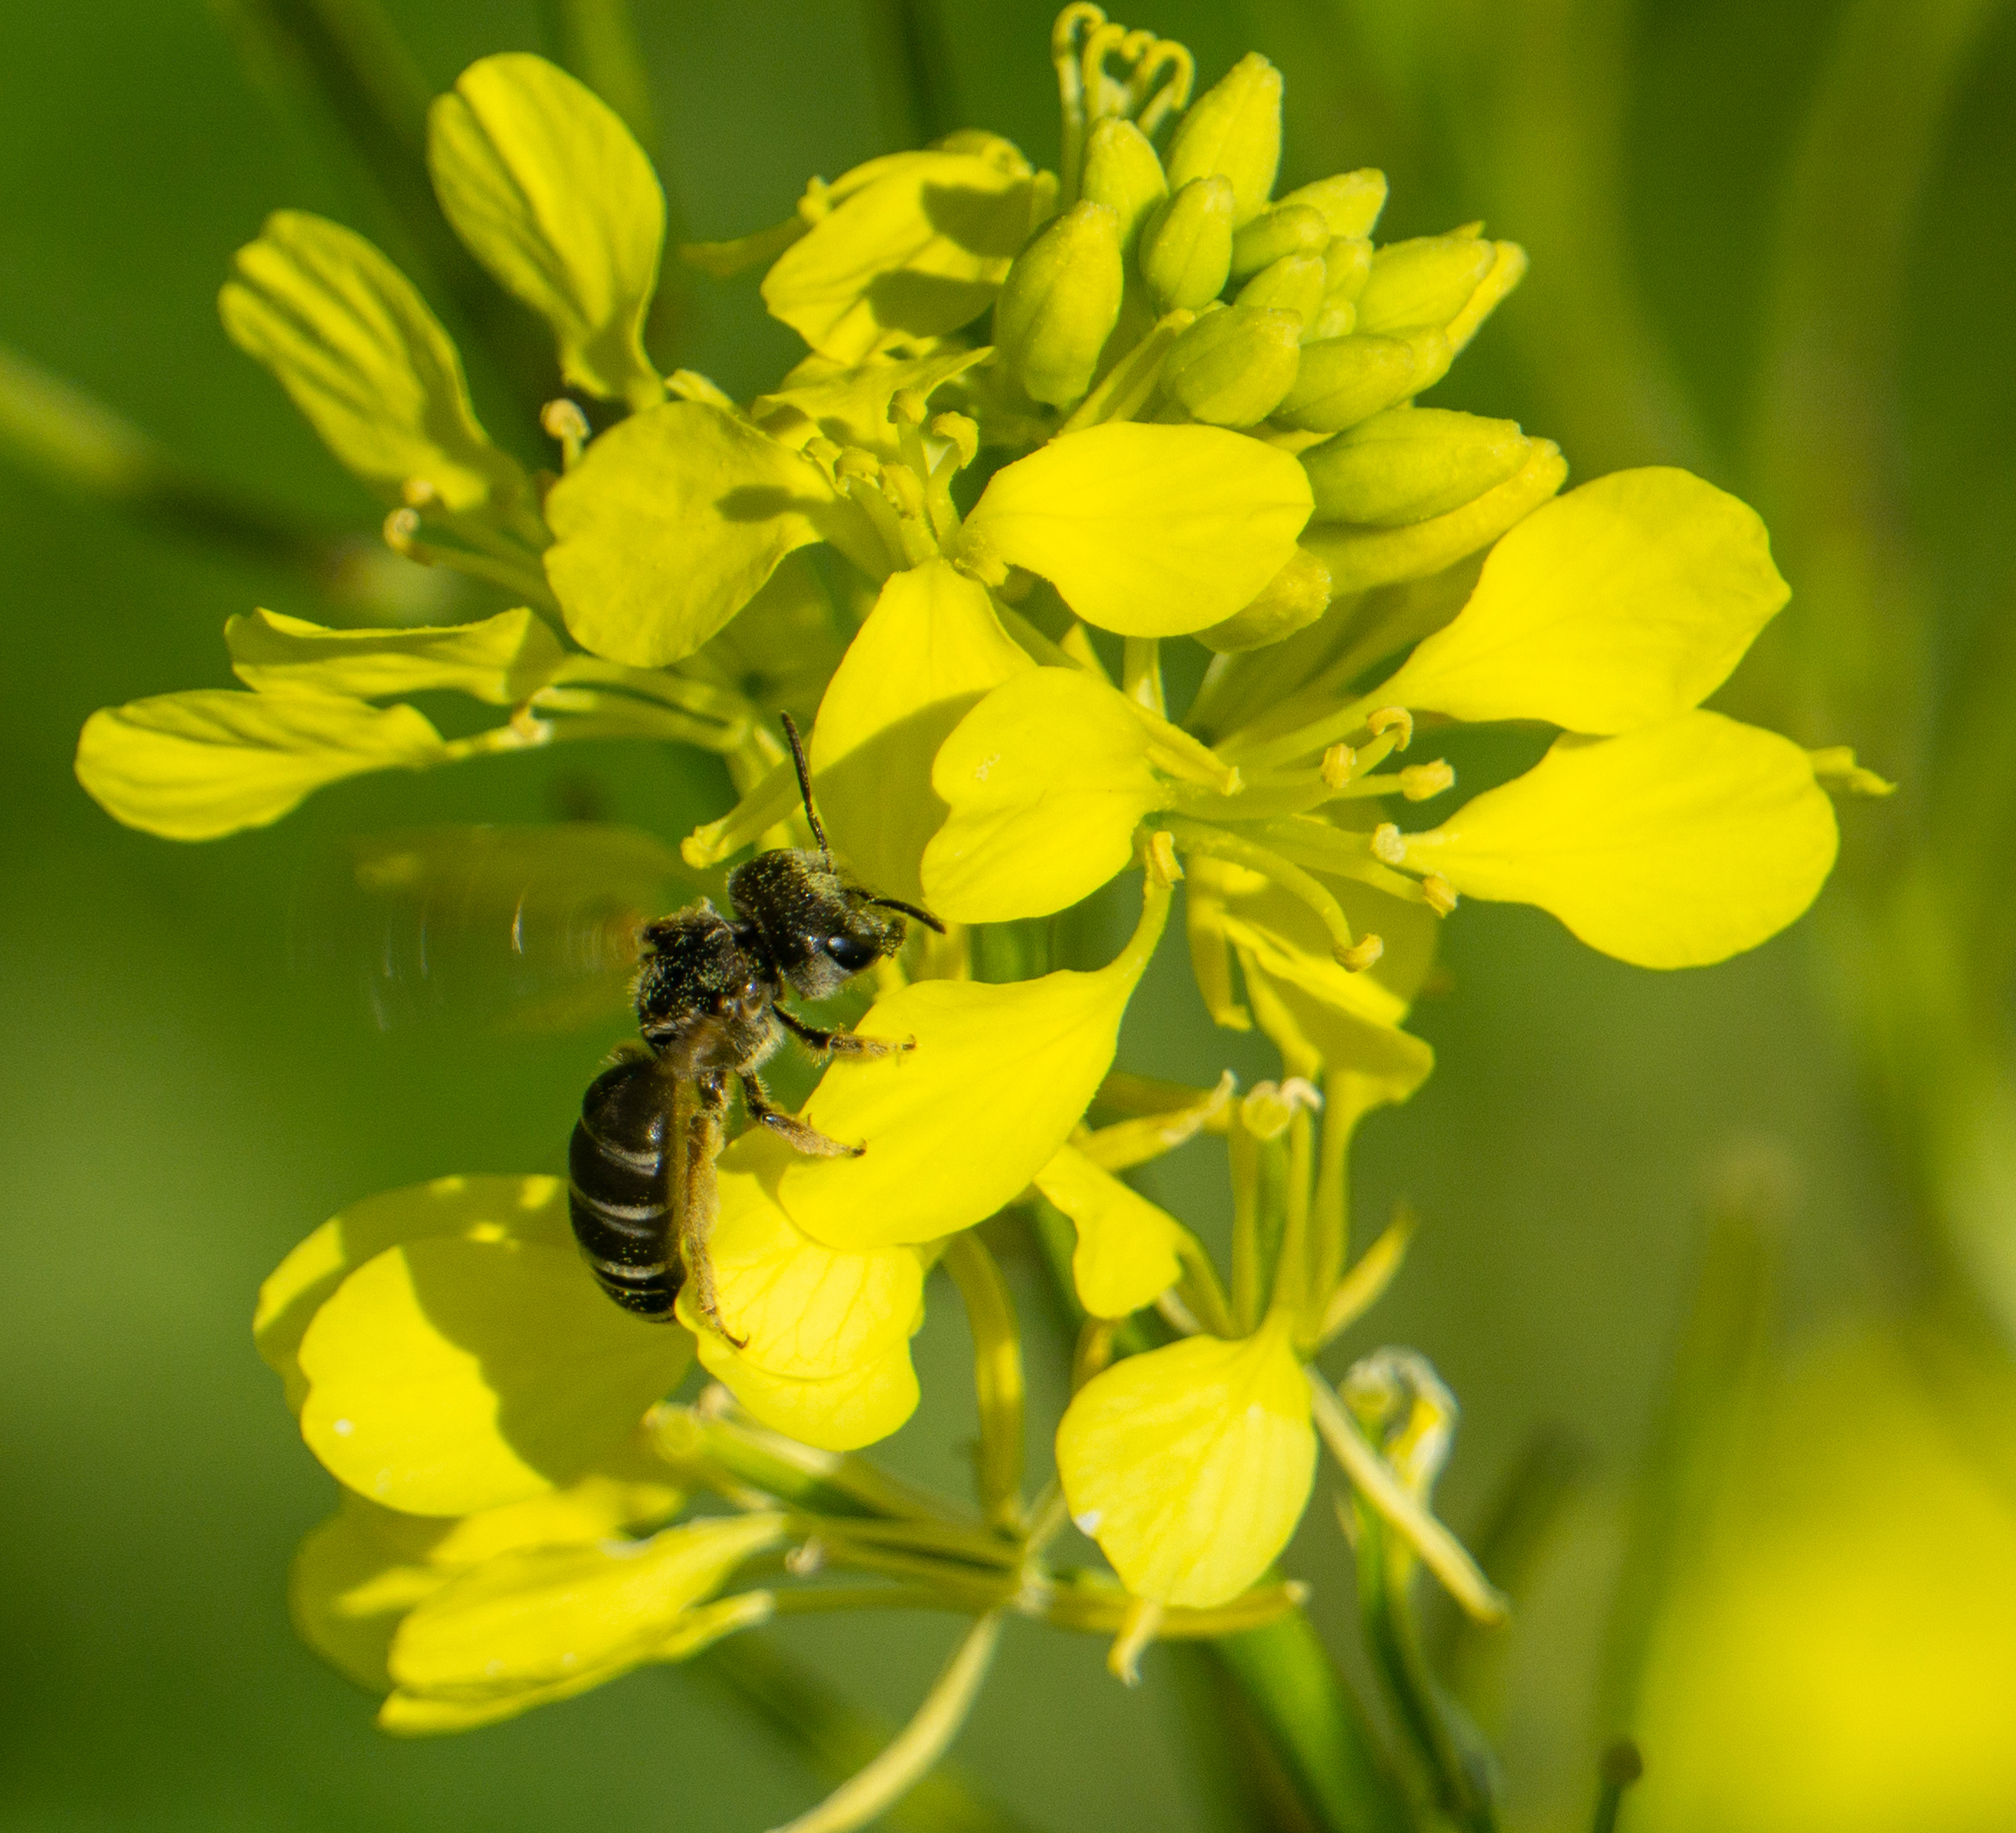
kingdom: Animalia
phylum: Arthropoda
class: Insecta
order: Hymenoptera
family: Halictidae
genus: Halictus
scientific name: Halictus ligatus
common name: Ligated furrow bee
